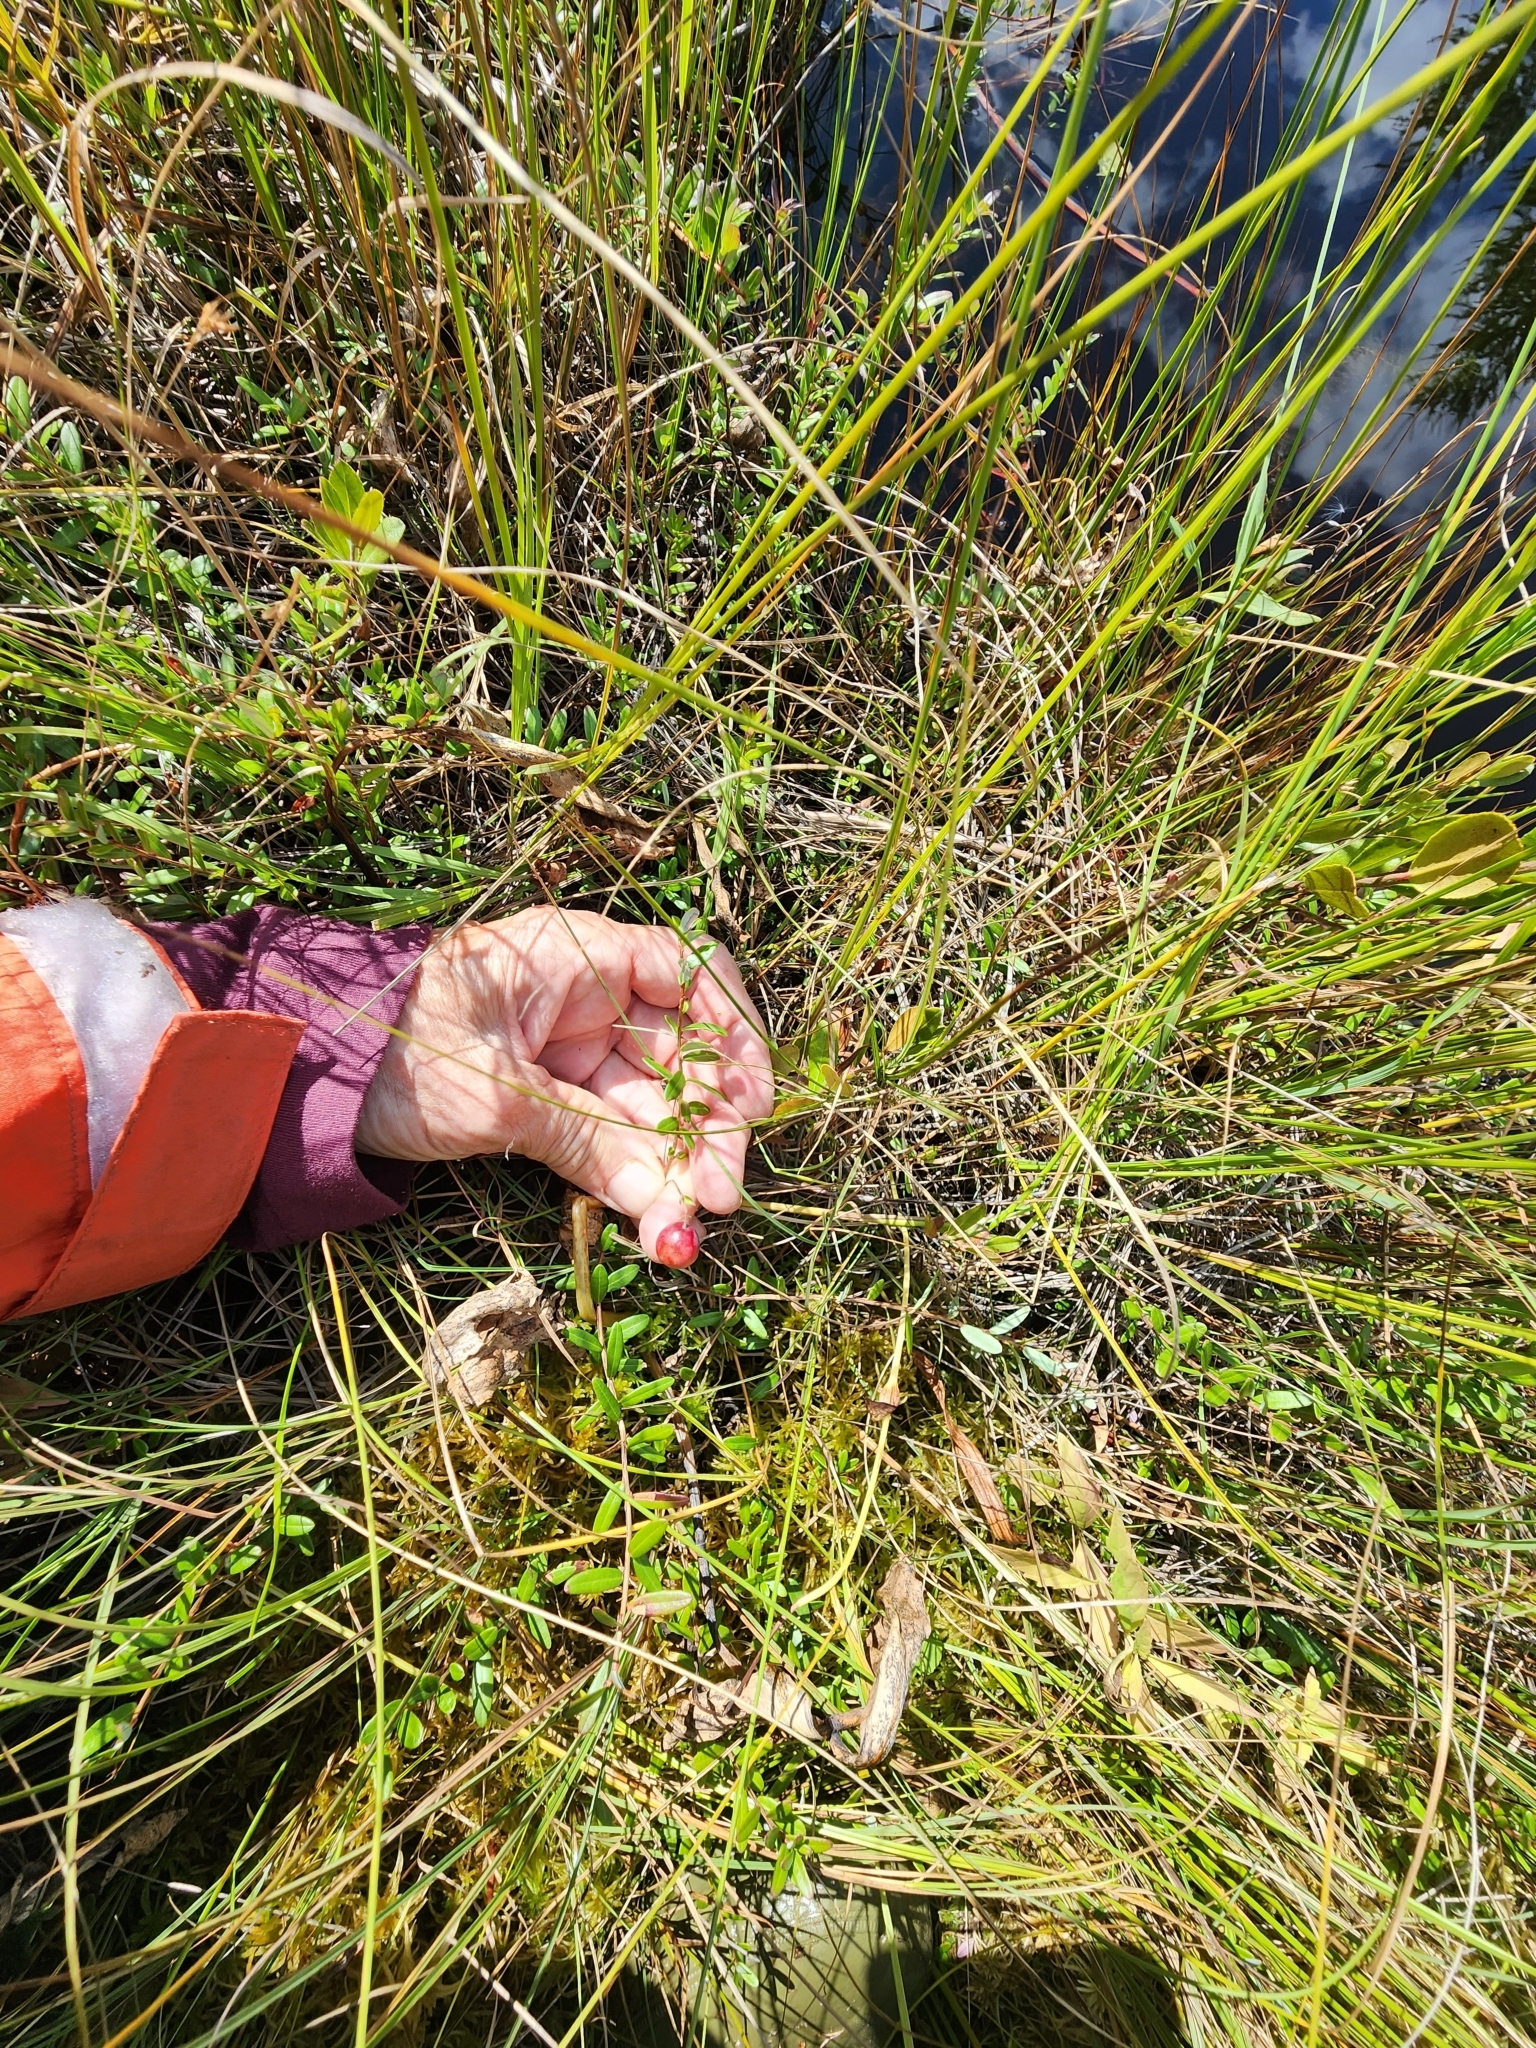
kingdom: Plantae
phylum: Tracheophyta
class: Magnoliopsida
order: Ericales
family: Ericaceae
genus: Vaccinium
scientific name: Vaccinium macrocarpon
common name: American cranberry
